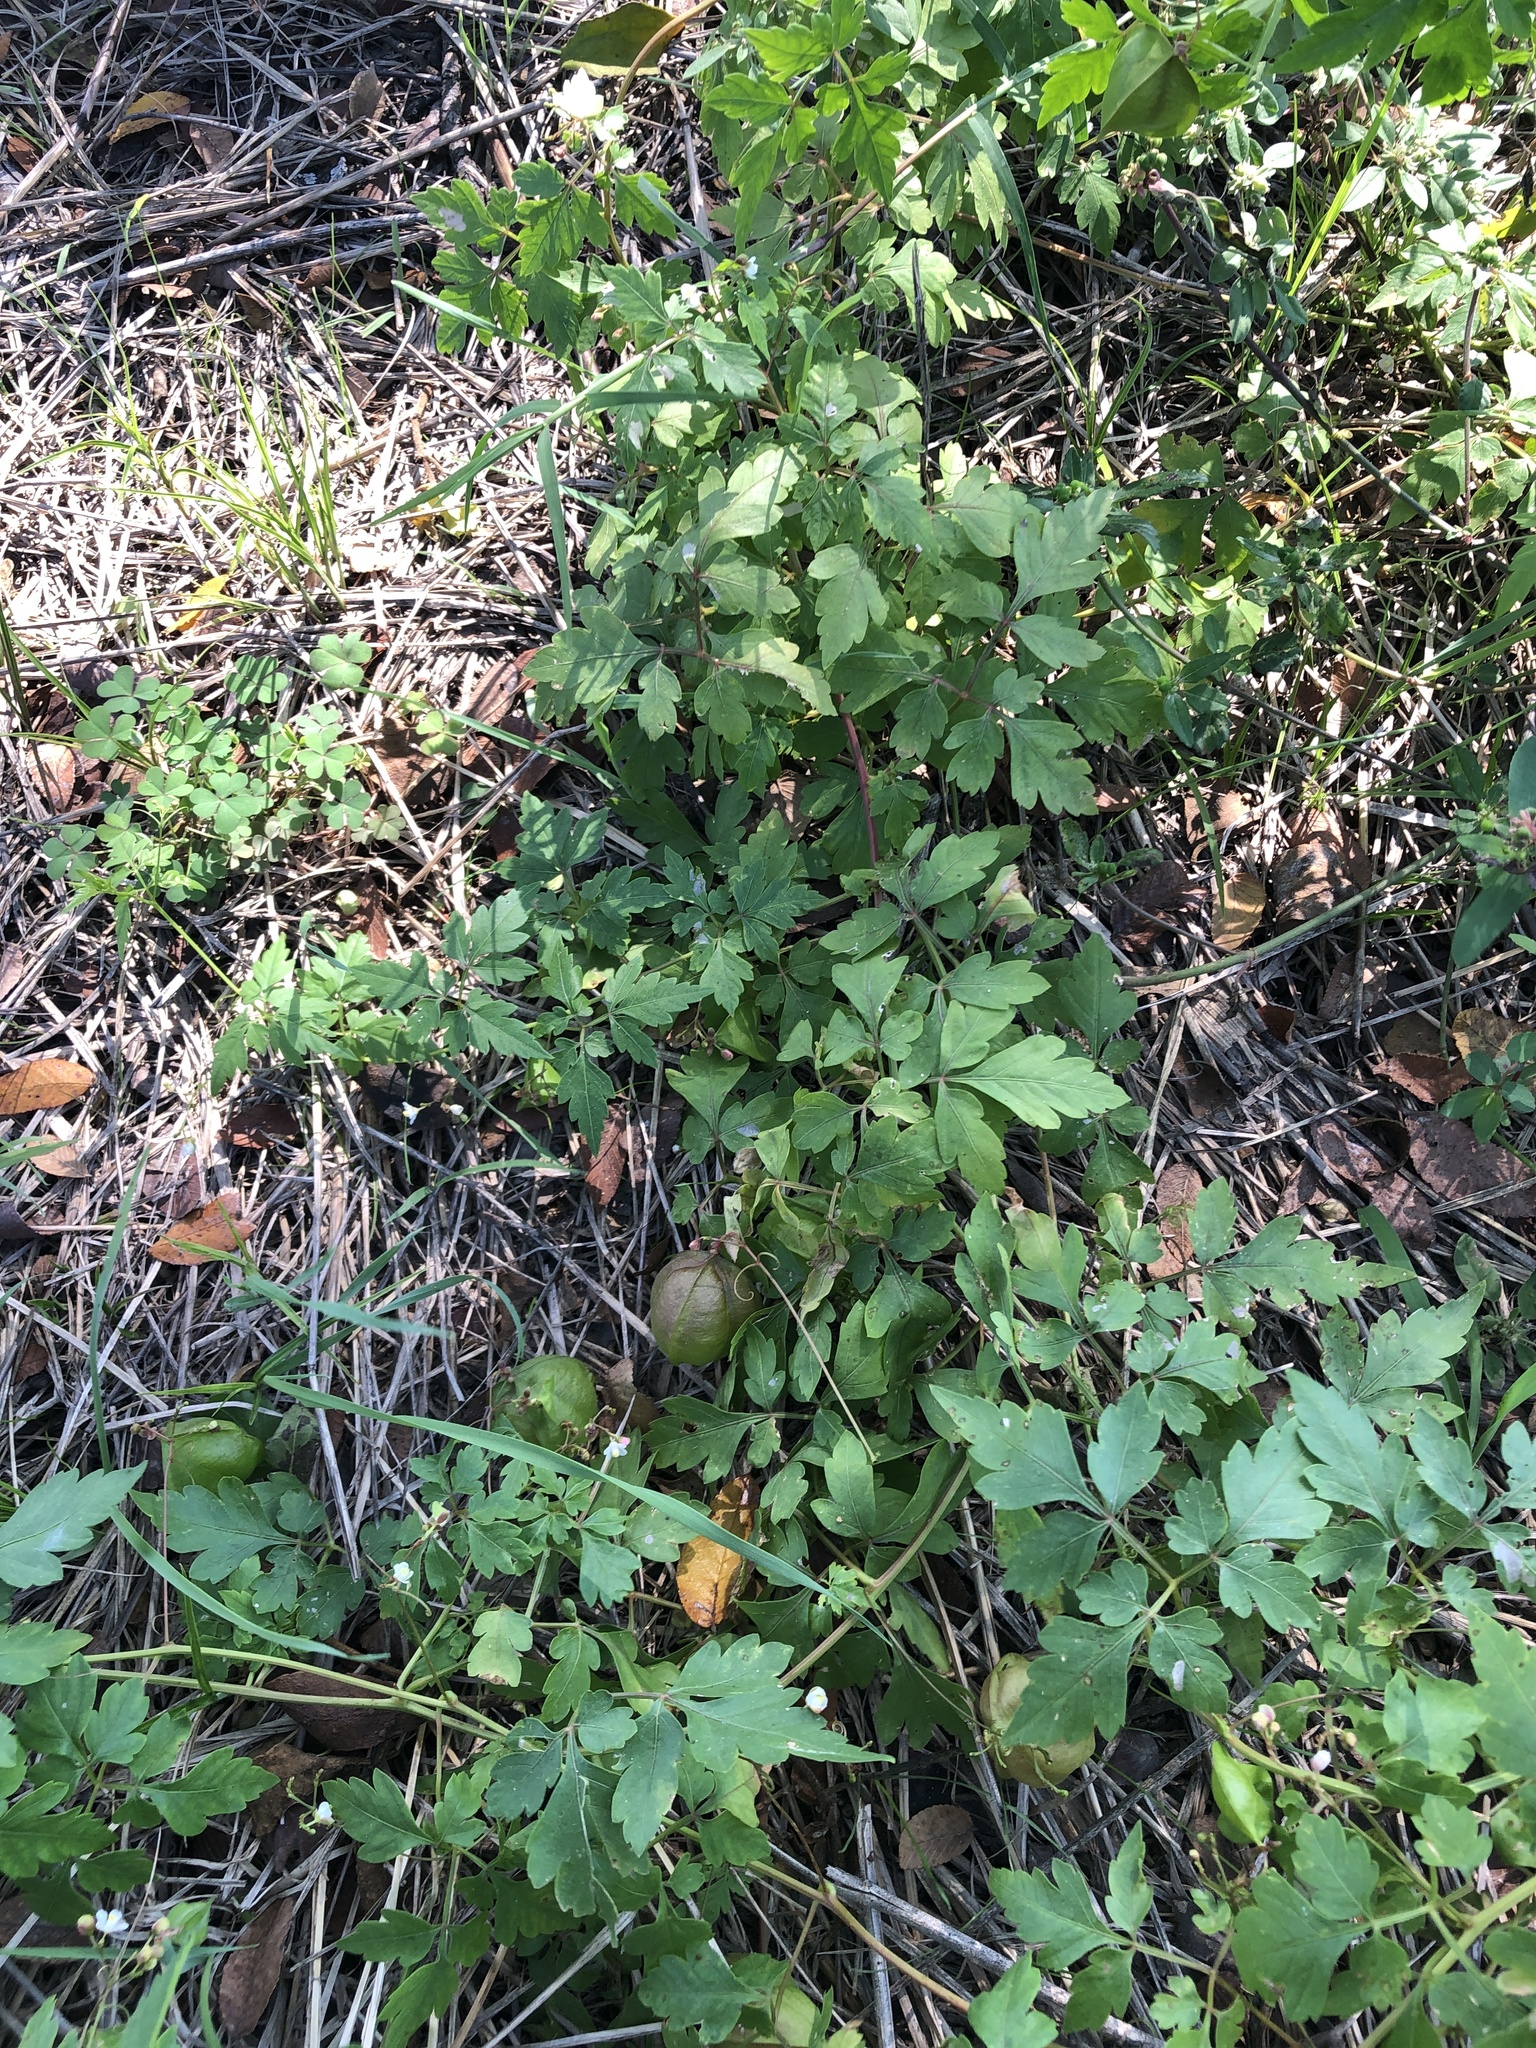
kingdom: Plantae
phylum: Tracheophyta
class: Magnoliopsida
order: Sapindales
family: Sapindaceae
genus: Cardiospermum
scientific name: Cardiospermum halicacabum
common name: Balloon vine
